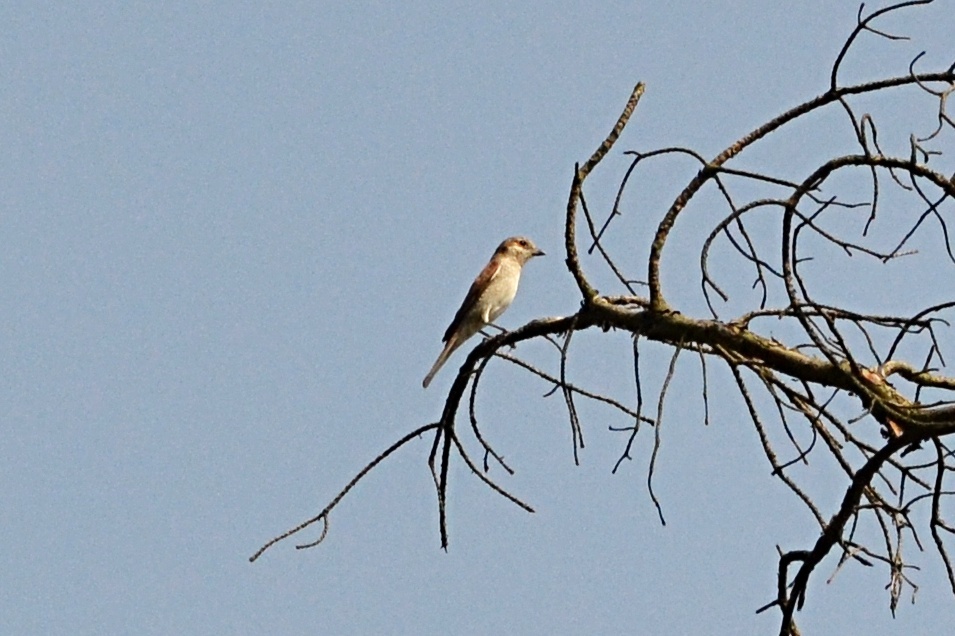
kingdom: Animalia
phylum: Chordata
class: Aves
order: Passeriformes
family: Laniidae
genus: Lanius
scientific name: Lanius collurio
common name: Red-backed shrike
